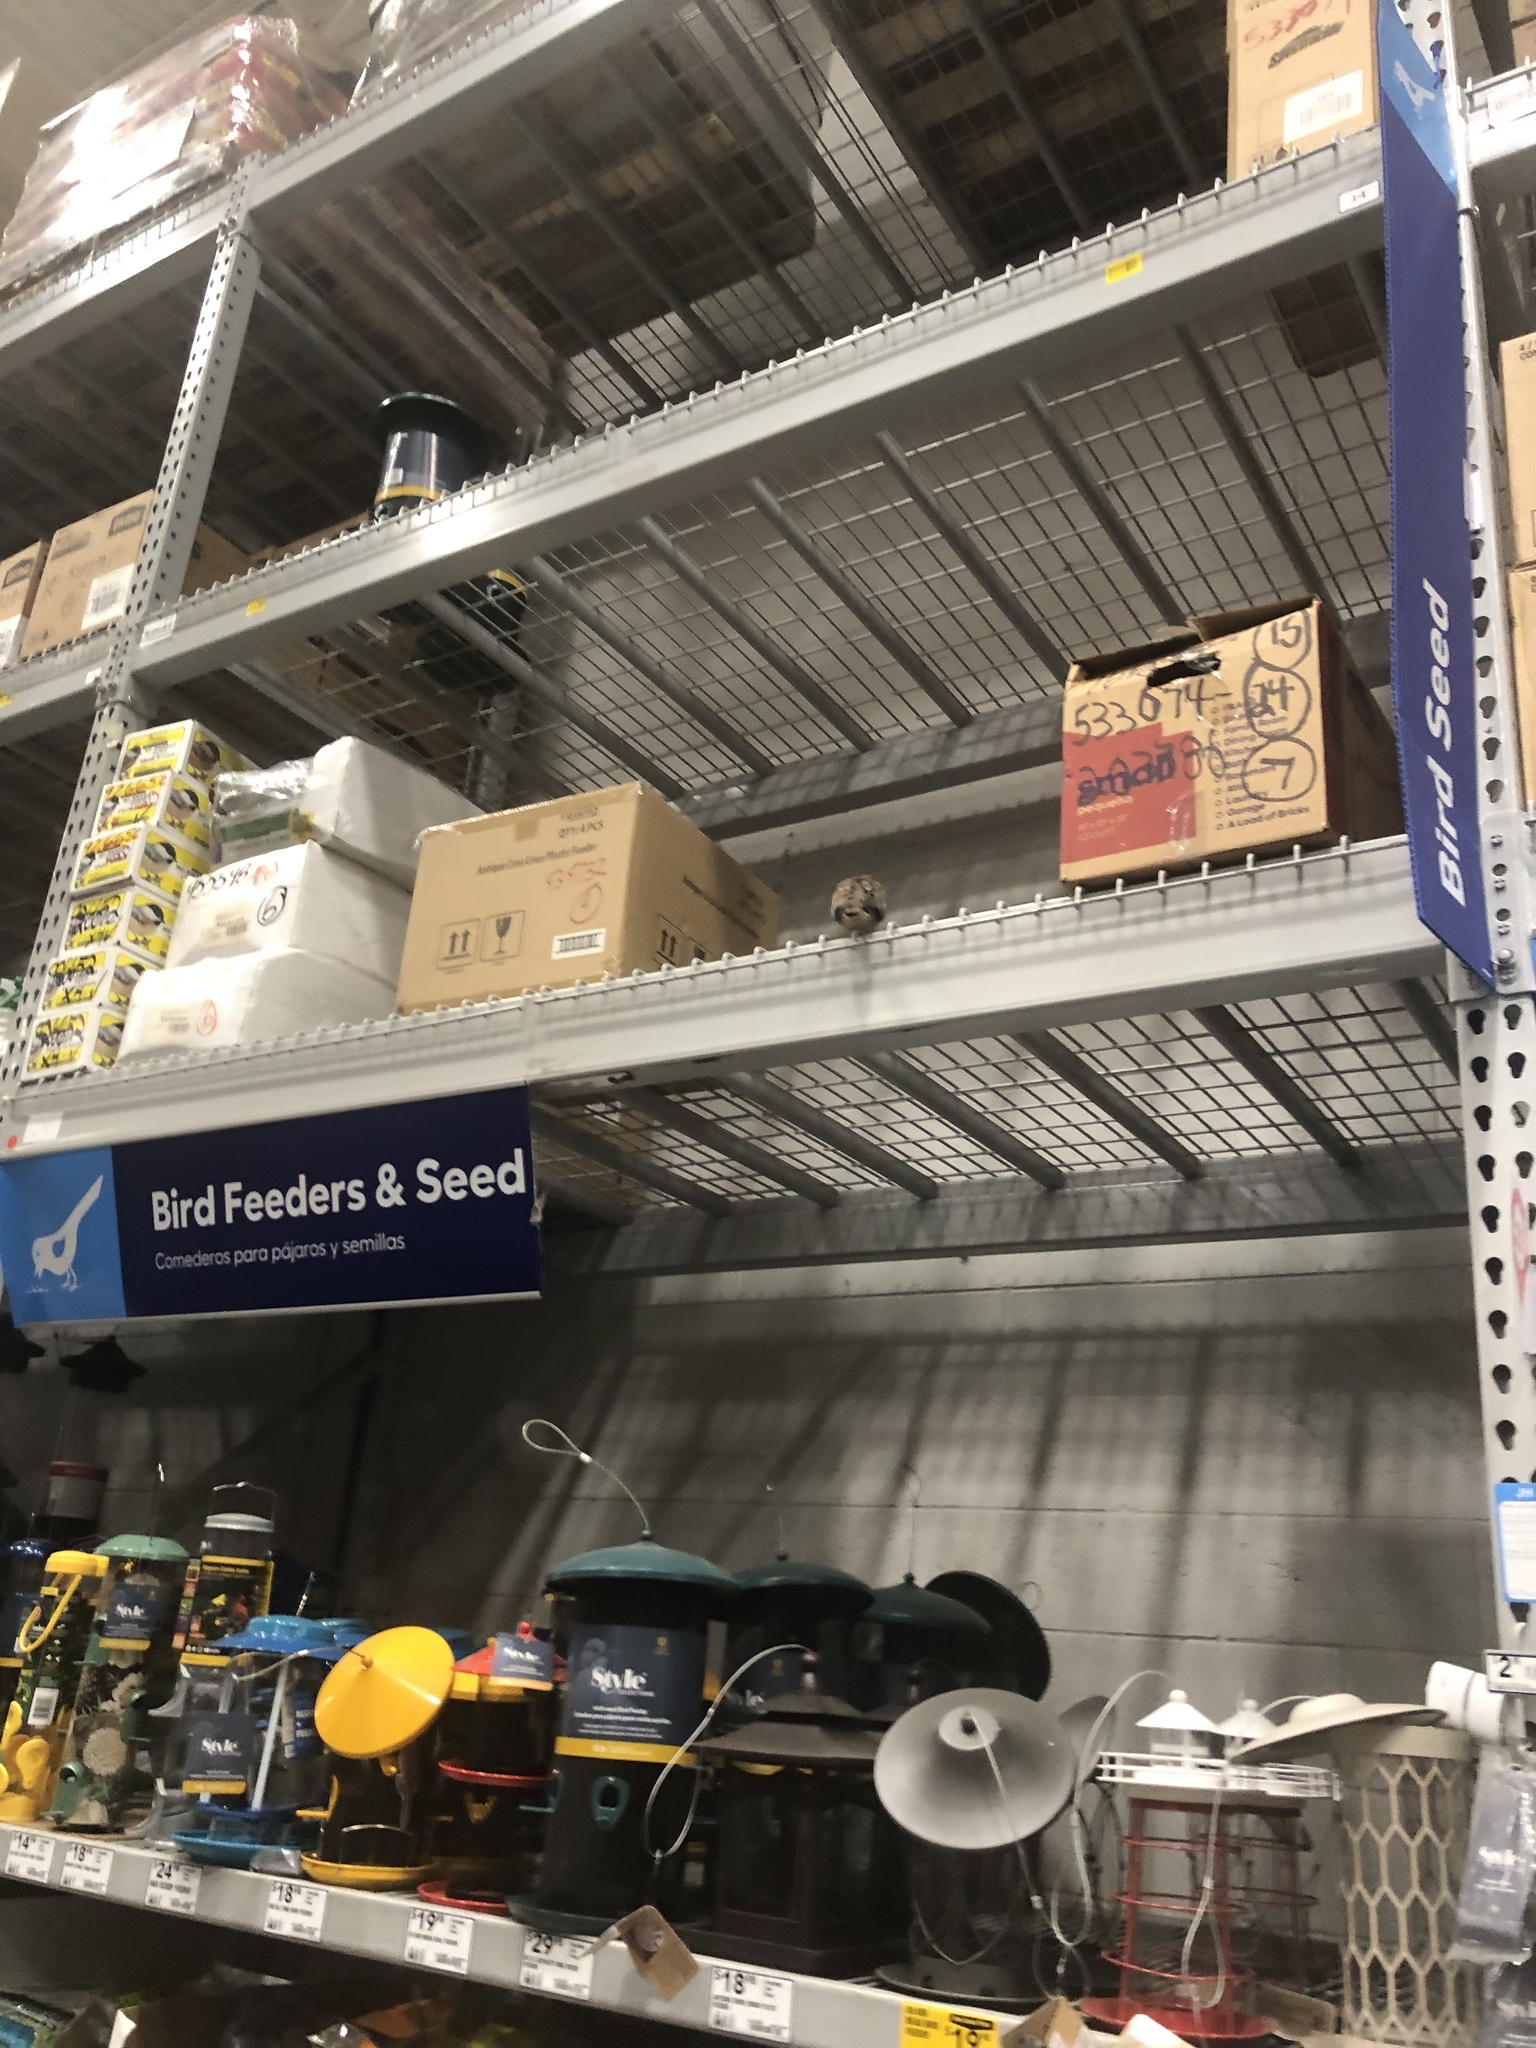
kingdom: Animalia
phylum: Chordata
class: Aves
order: Columbiformes
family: Columbidae
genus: Zenaida
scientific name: Zenaida macroura
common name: Mourning dove
